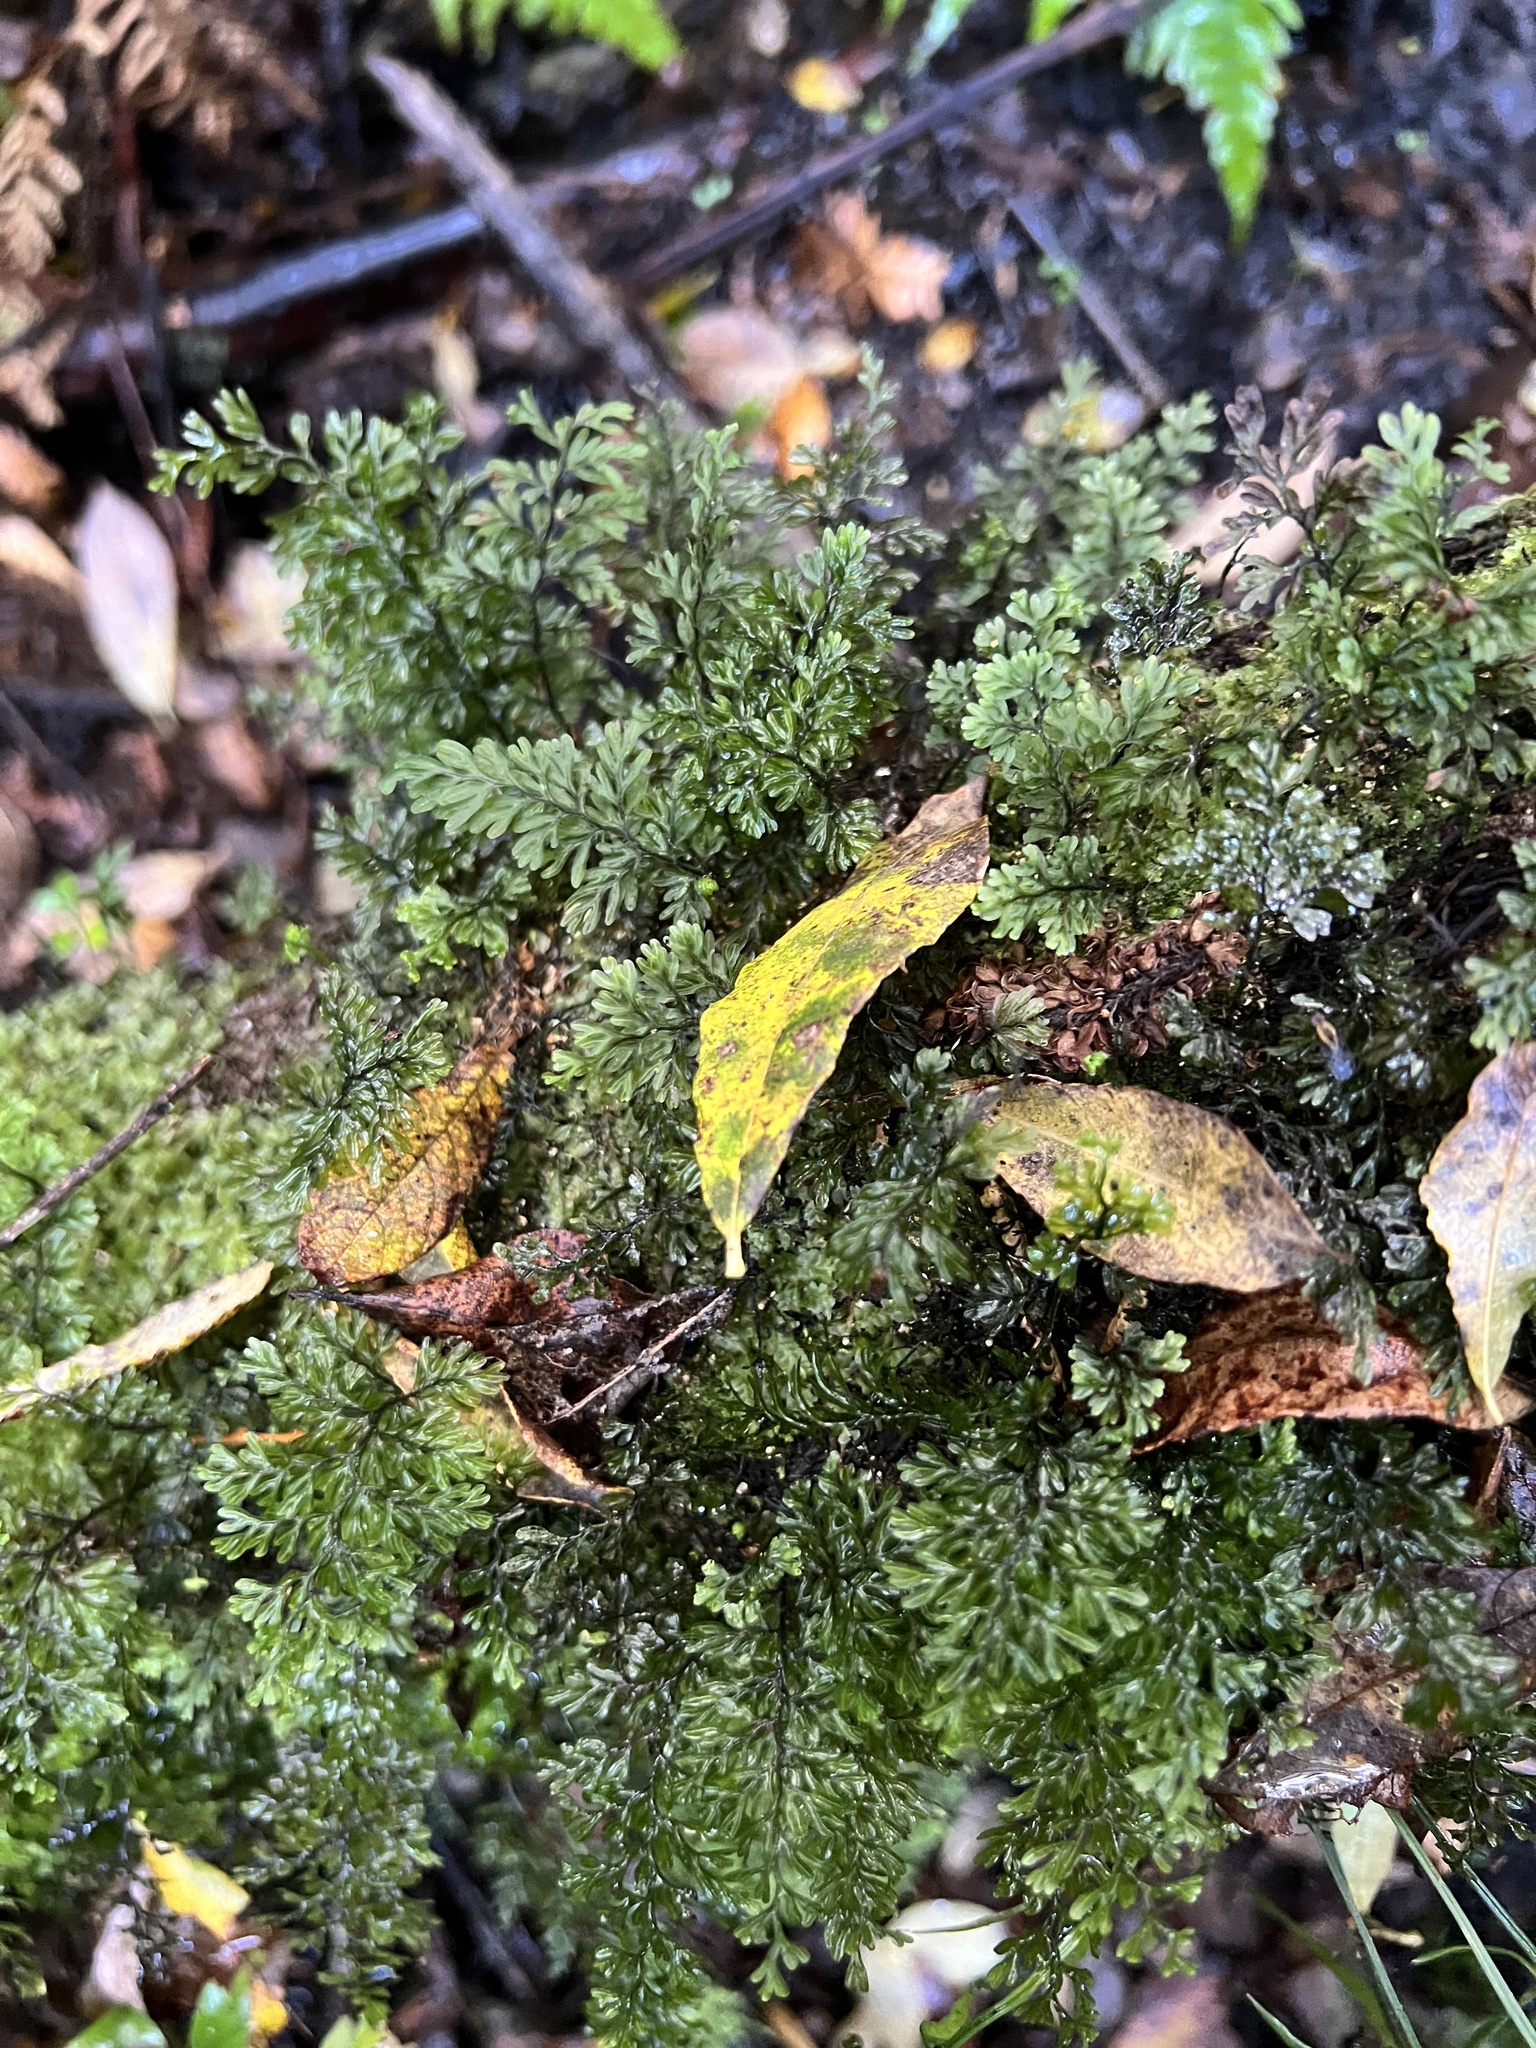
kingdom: Plantae
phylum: Tracheophyta
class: Polypodiopsida
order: Hymenophyllales
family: Hymenophyllaceae
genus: Hymenophyllum
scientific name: Hymenophyllum sanguinolentum
